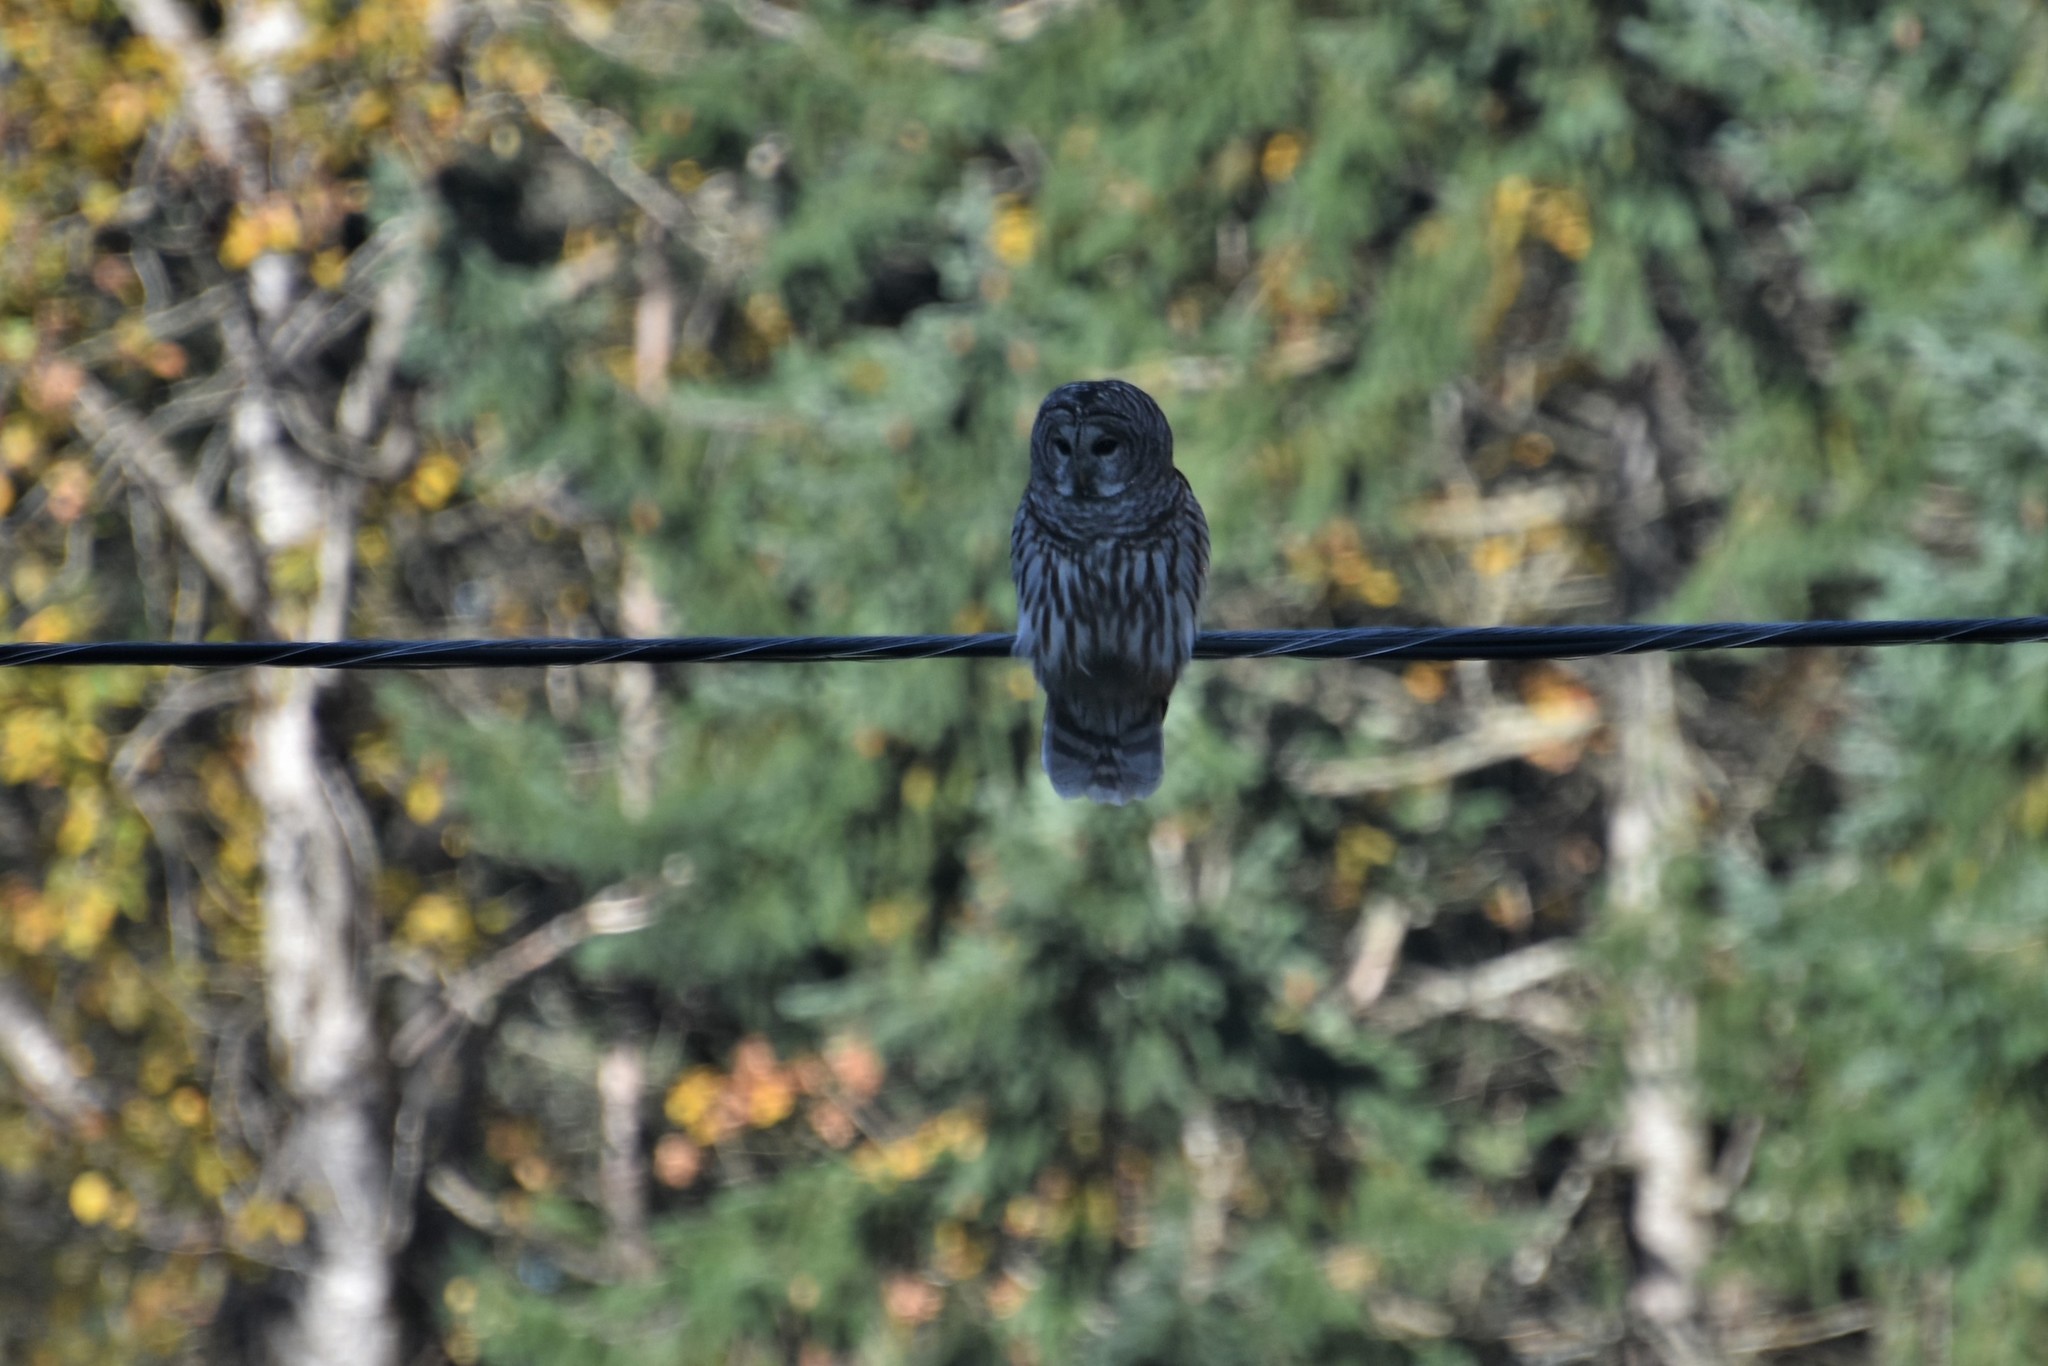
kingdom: Animalia
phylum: Chordata
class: Aves
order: Strigiformes
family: Strigidae
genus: Strix
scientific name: Strix varia
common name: Barred owl
